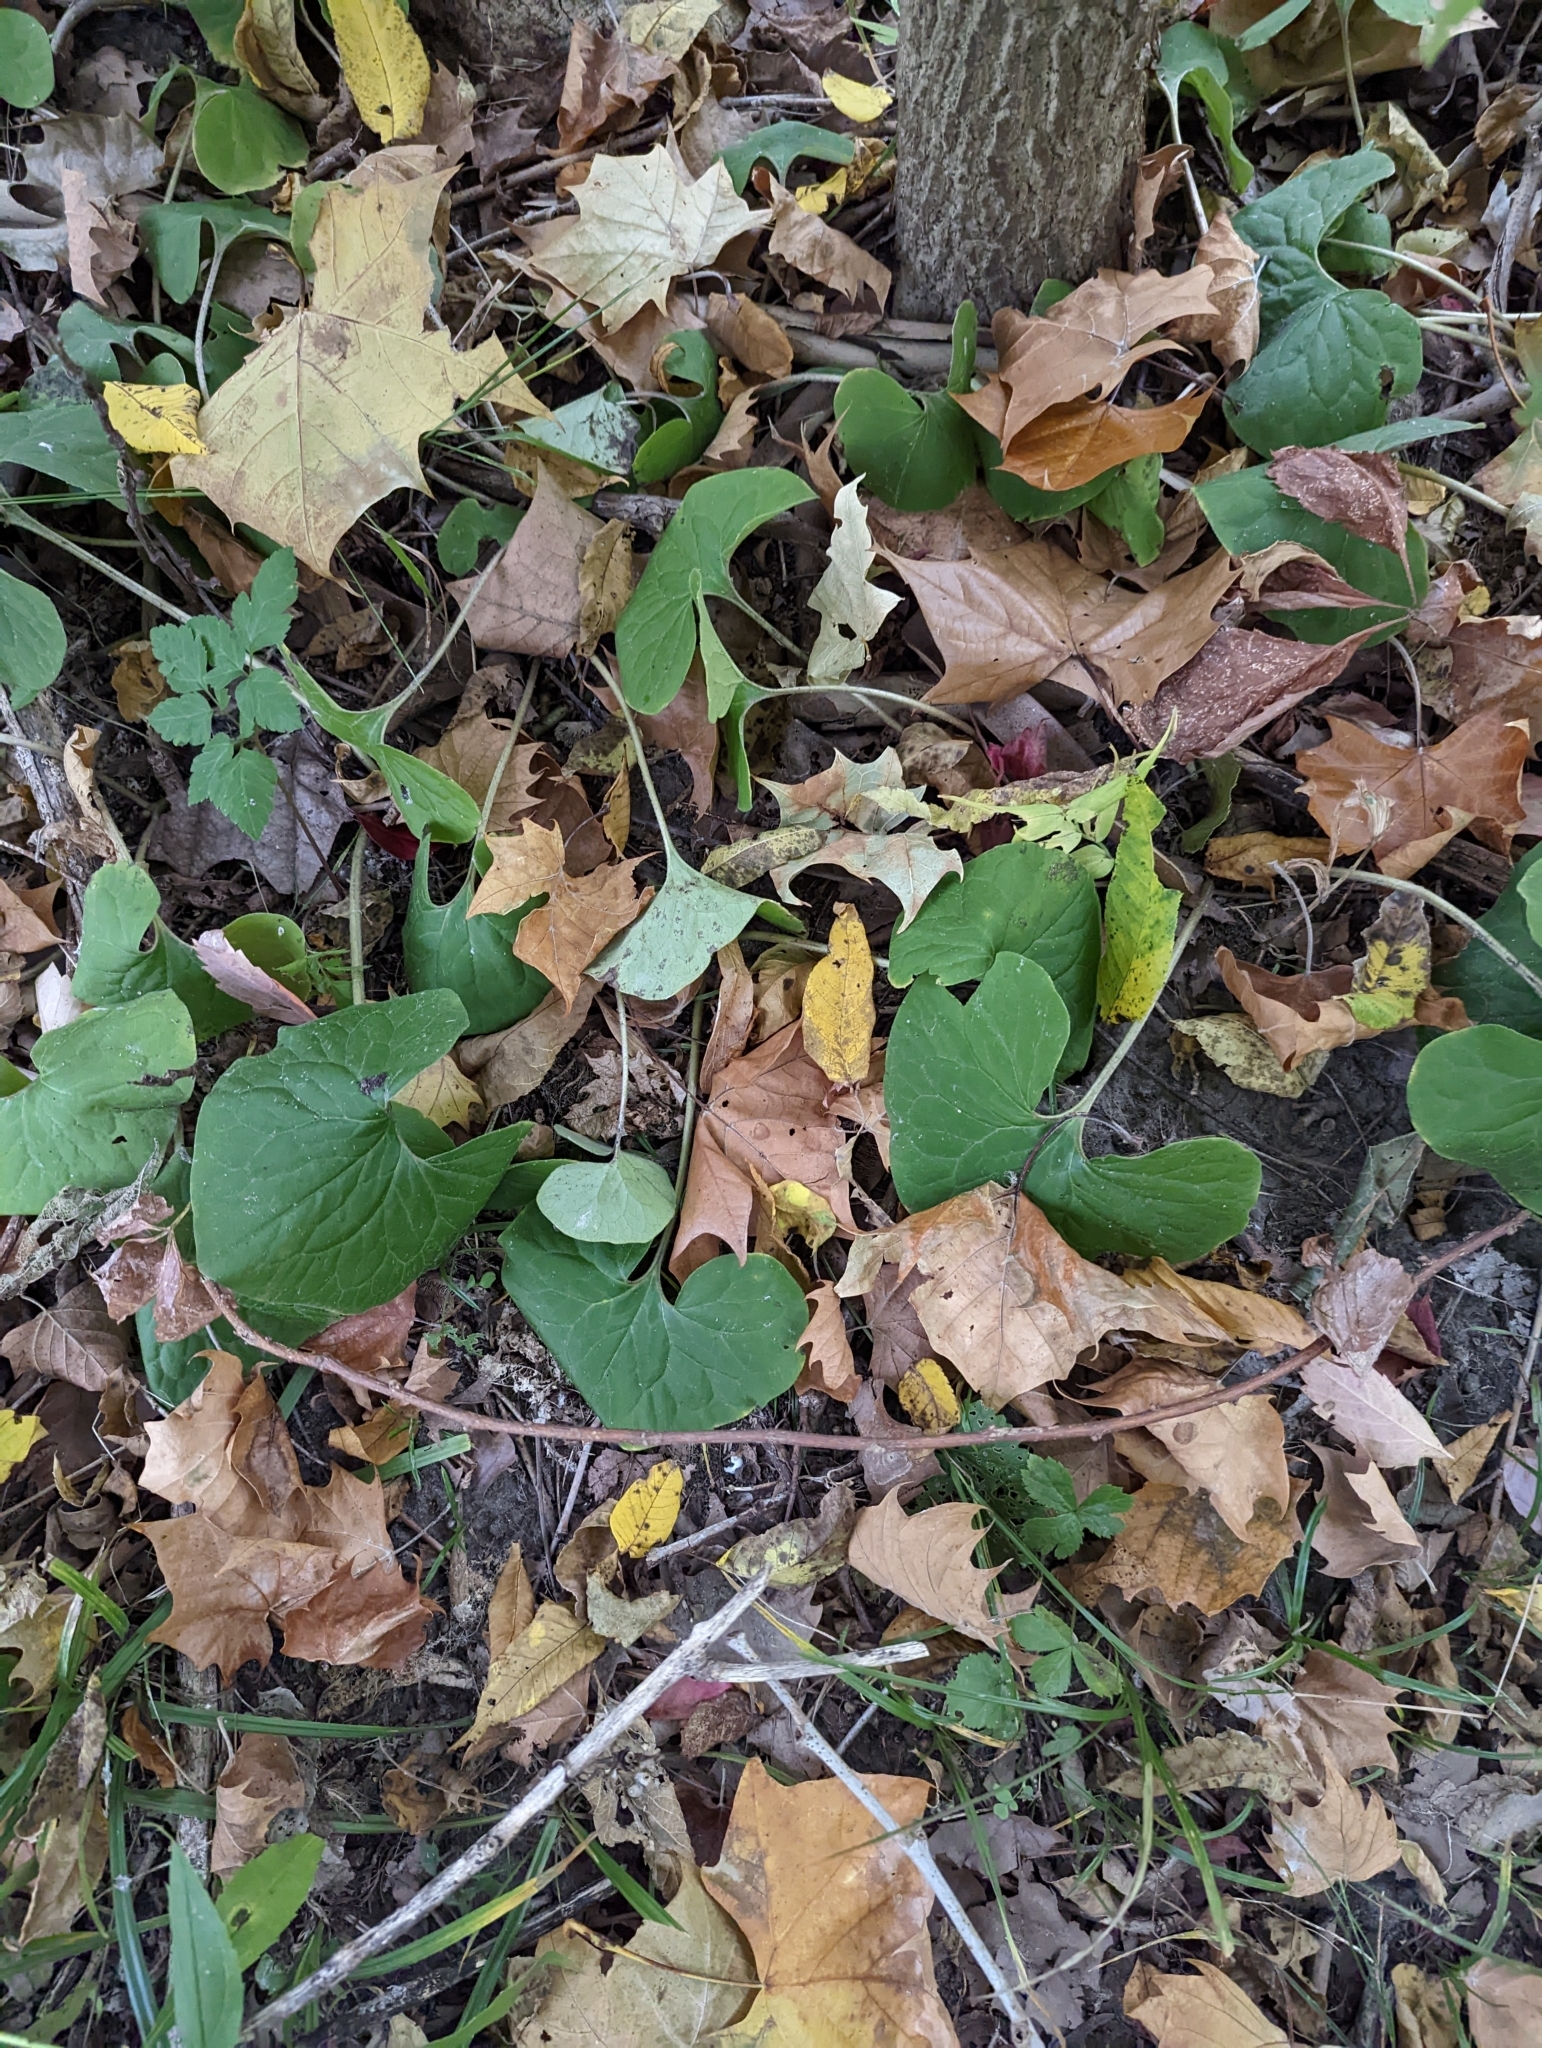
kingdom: Plantae
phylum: Tracheophyta
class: Magnoliopsida
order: Piperales
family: Aristolochiaceae
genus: Asarum
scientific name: Asarum canadense
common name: Wild ginger
